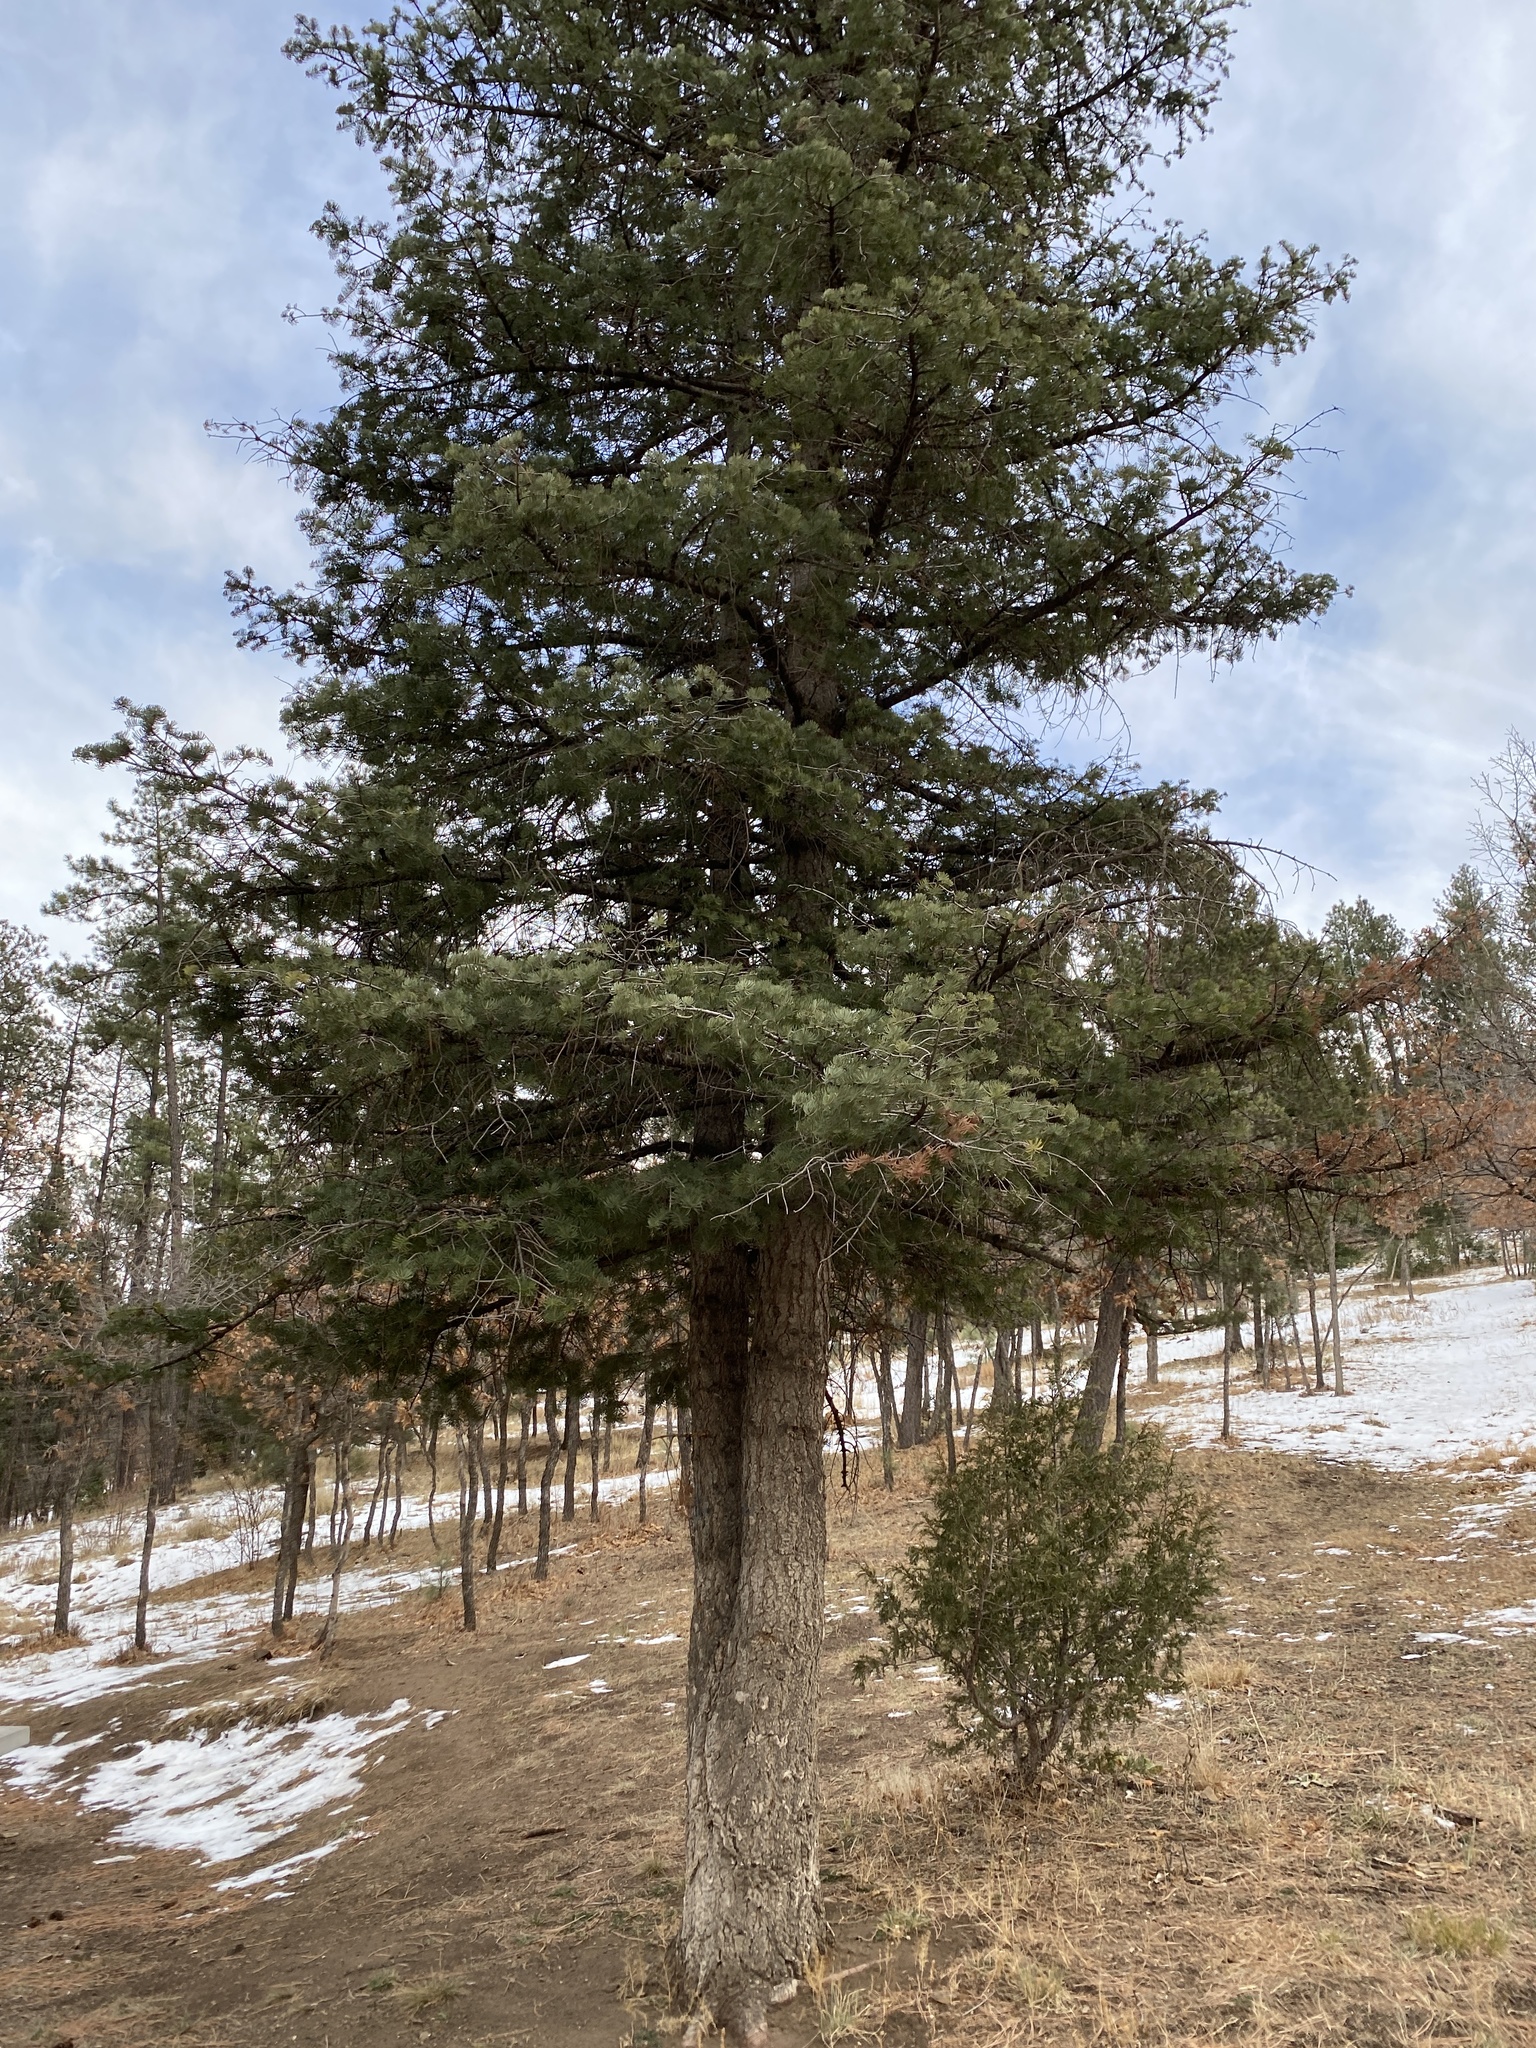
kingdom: Plantae
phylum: Tracheophyta
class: Pinopsida
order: Pinales
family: Pinaceae
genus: Abies
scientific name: Abies concolor
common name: Colorado fir
